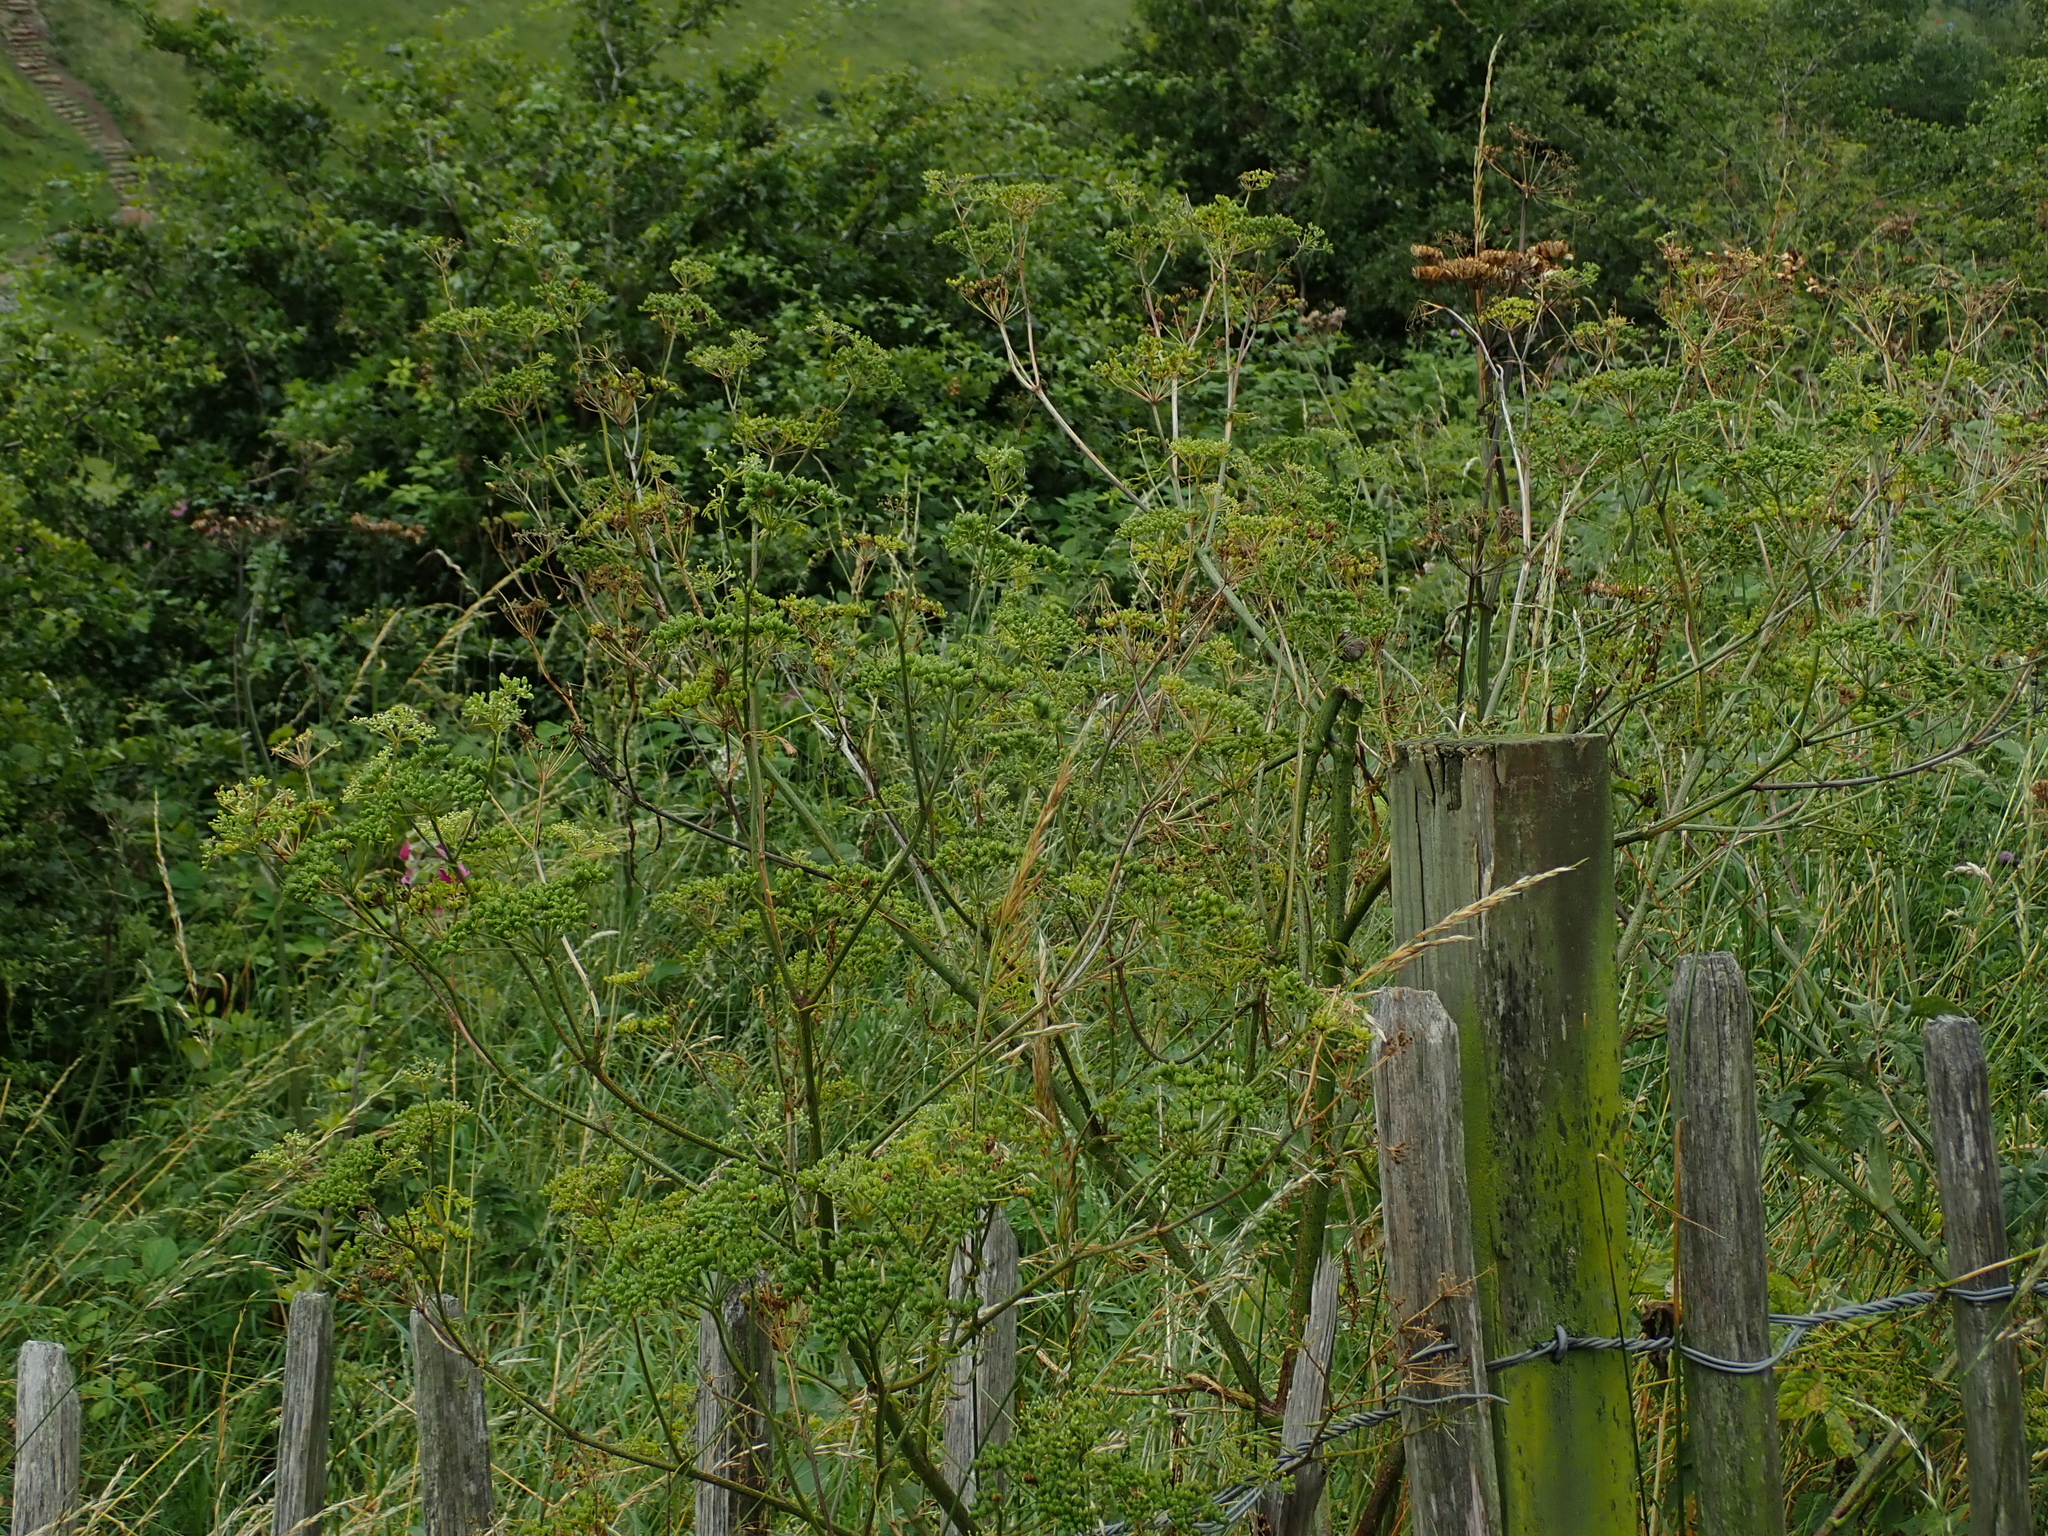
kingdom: Plantae
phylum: Tracheophyta
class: Magnoliopsida
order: Apiales
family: Apiaceae
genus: Conium
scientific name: Conium maculatum
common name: Hemlock
